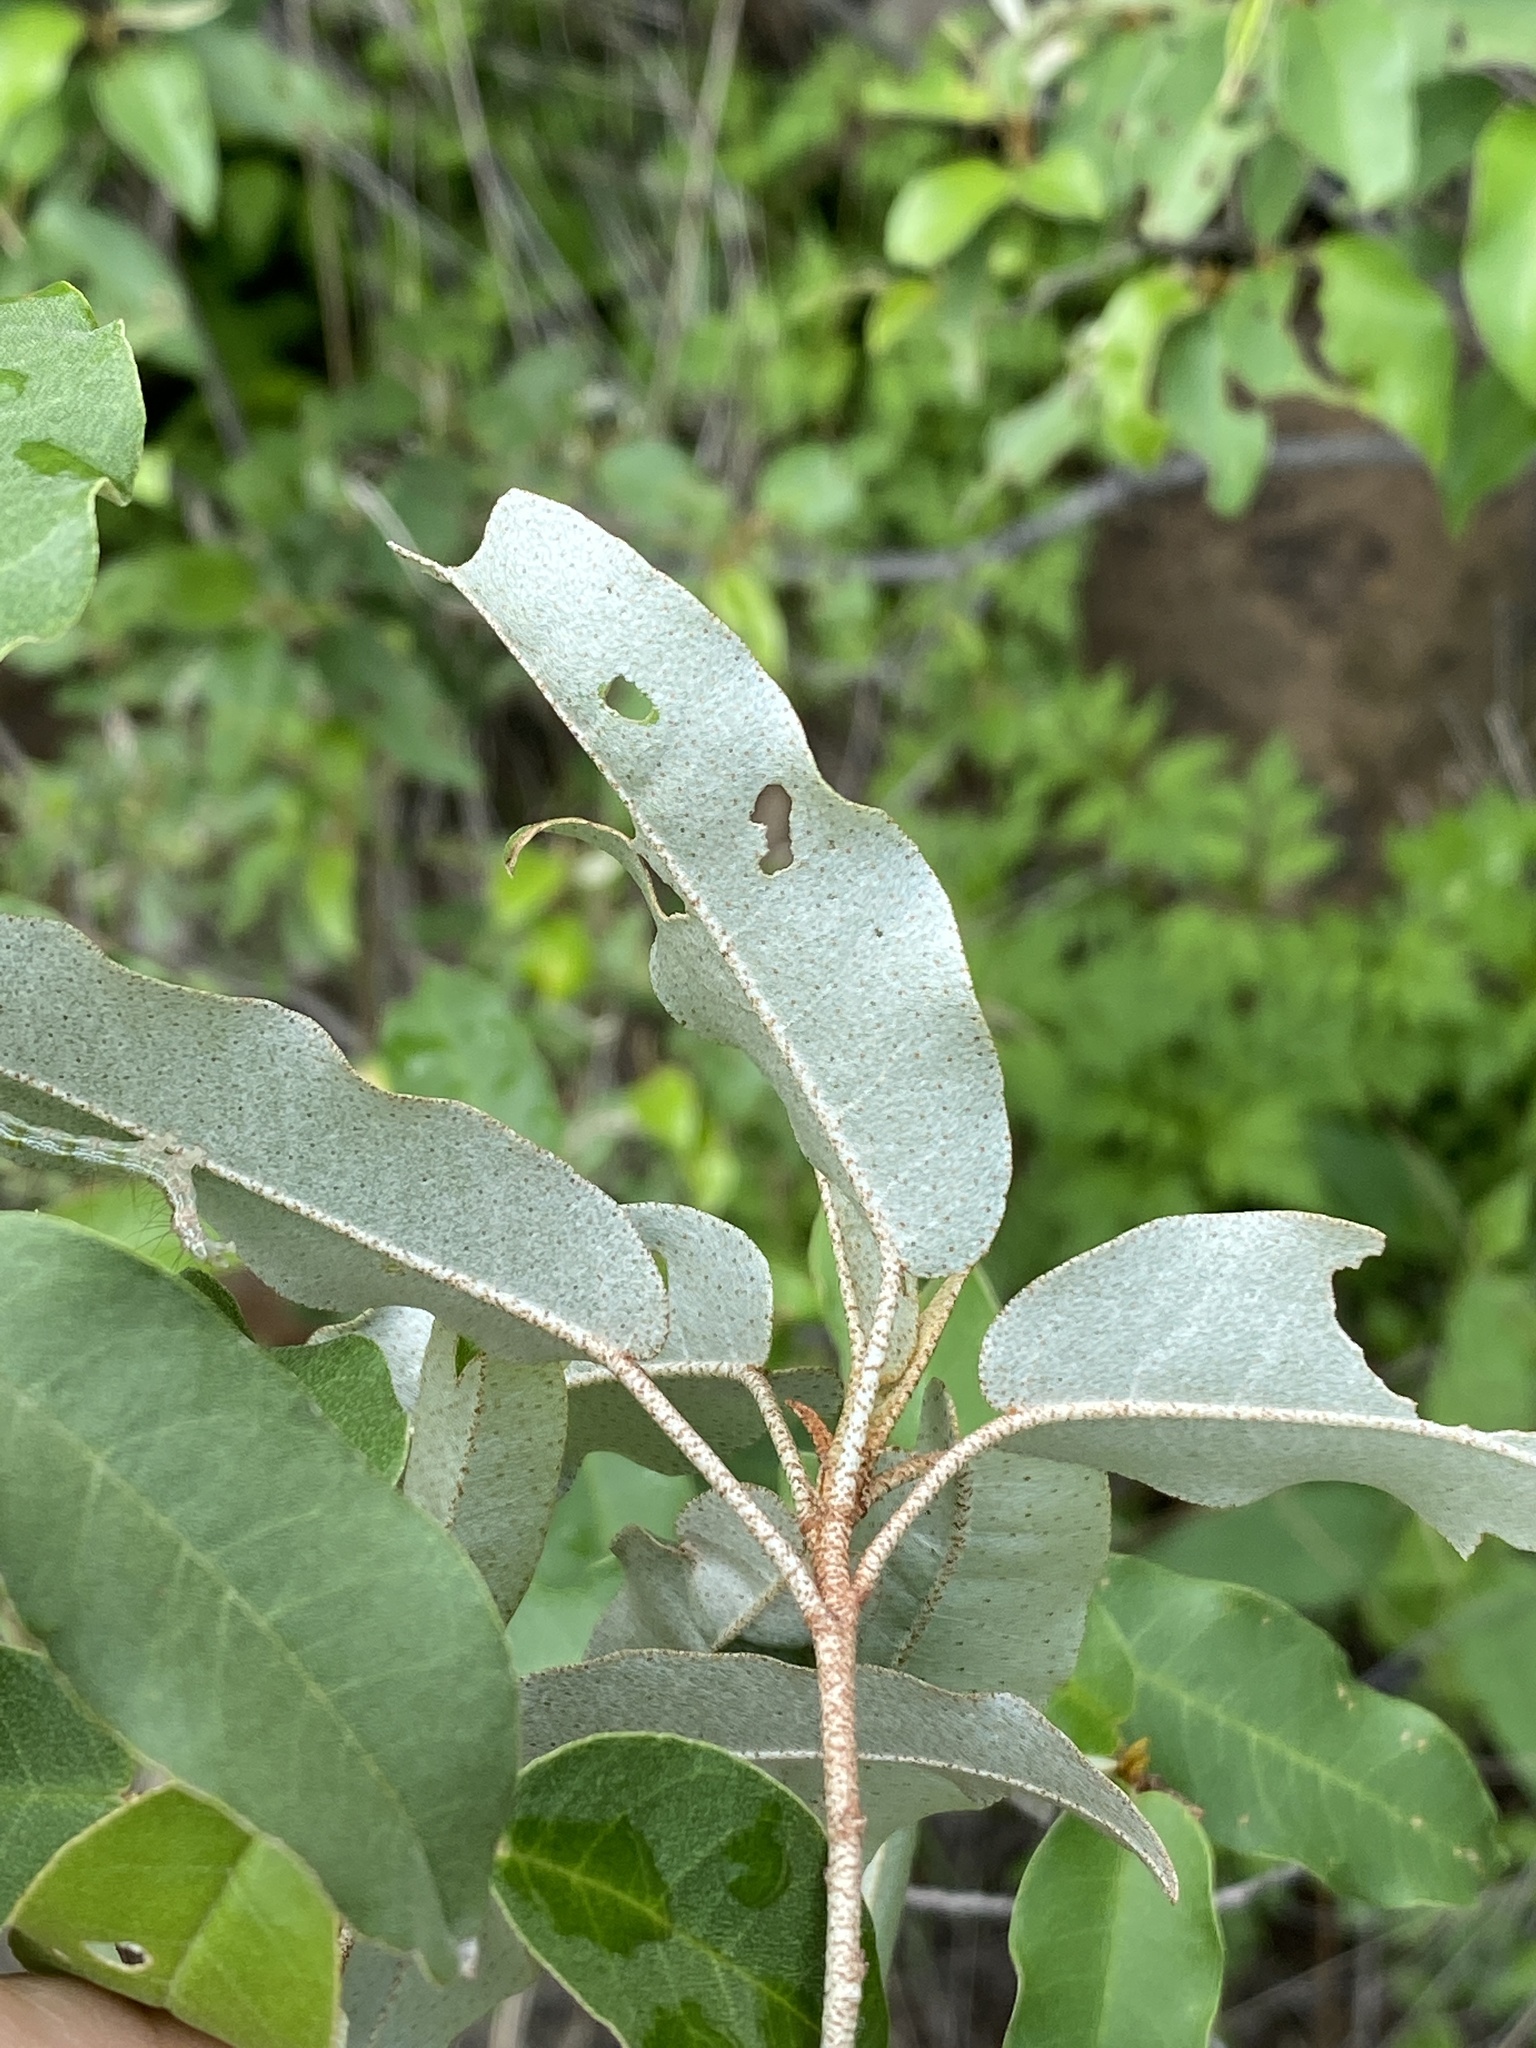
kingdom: Plantae
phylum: Tracheophyta
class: Magnoliopsida
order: Malpighiales
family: Euphorbiaceae
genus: Croton
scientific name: Croton gratissimus
